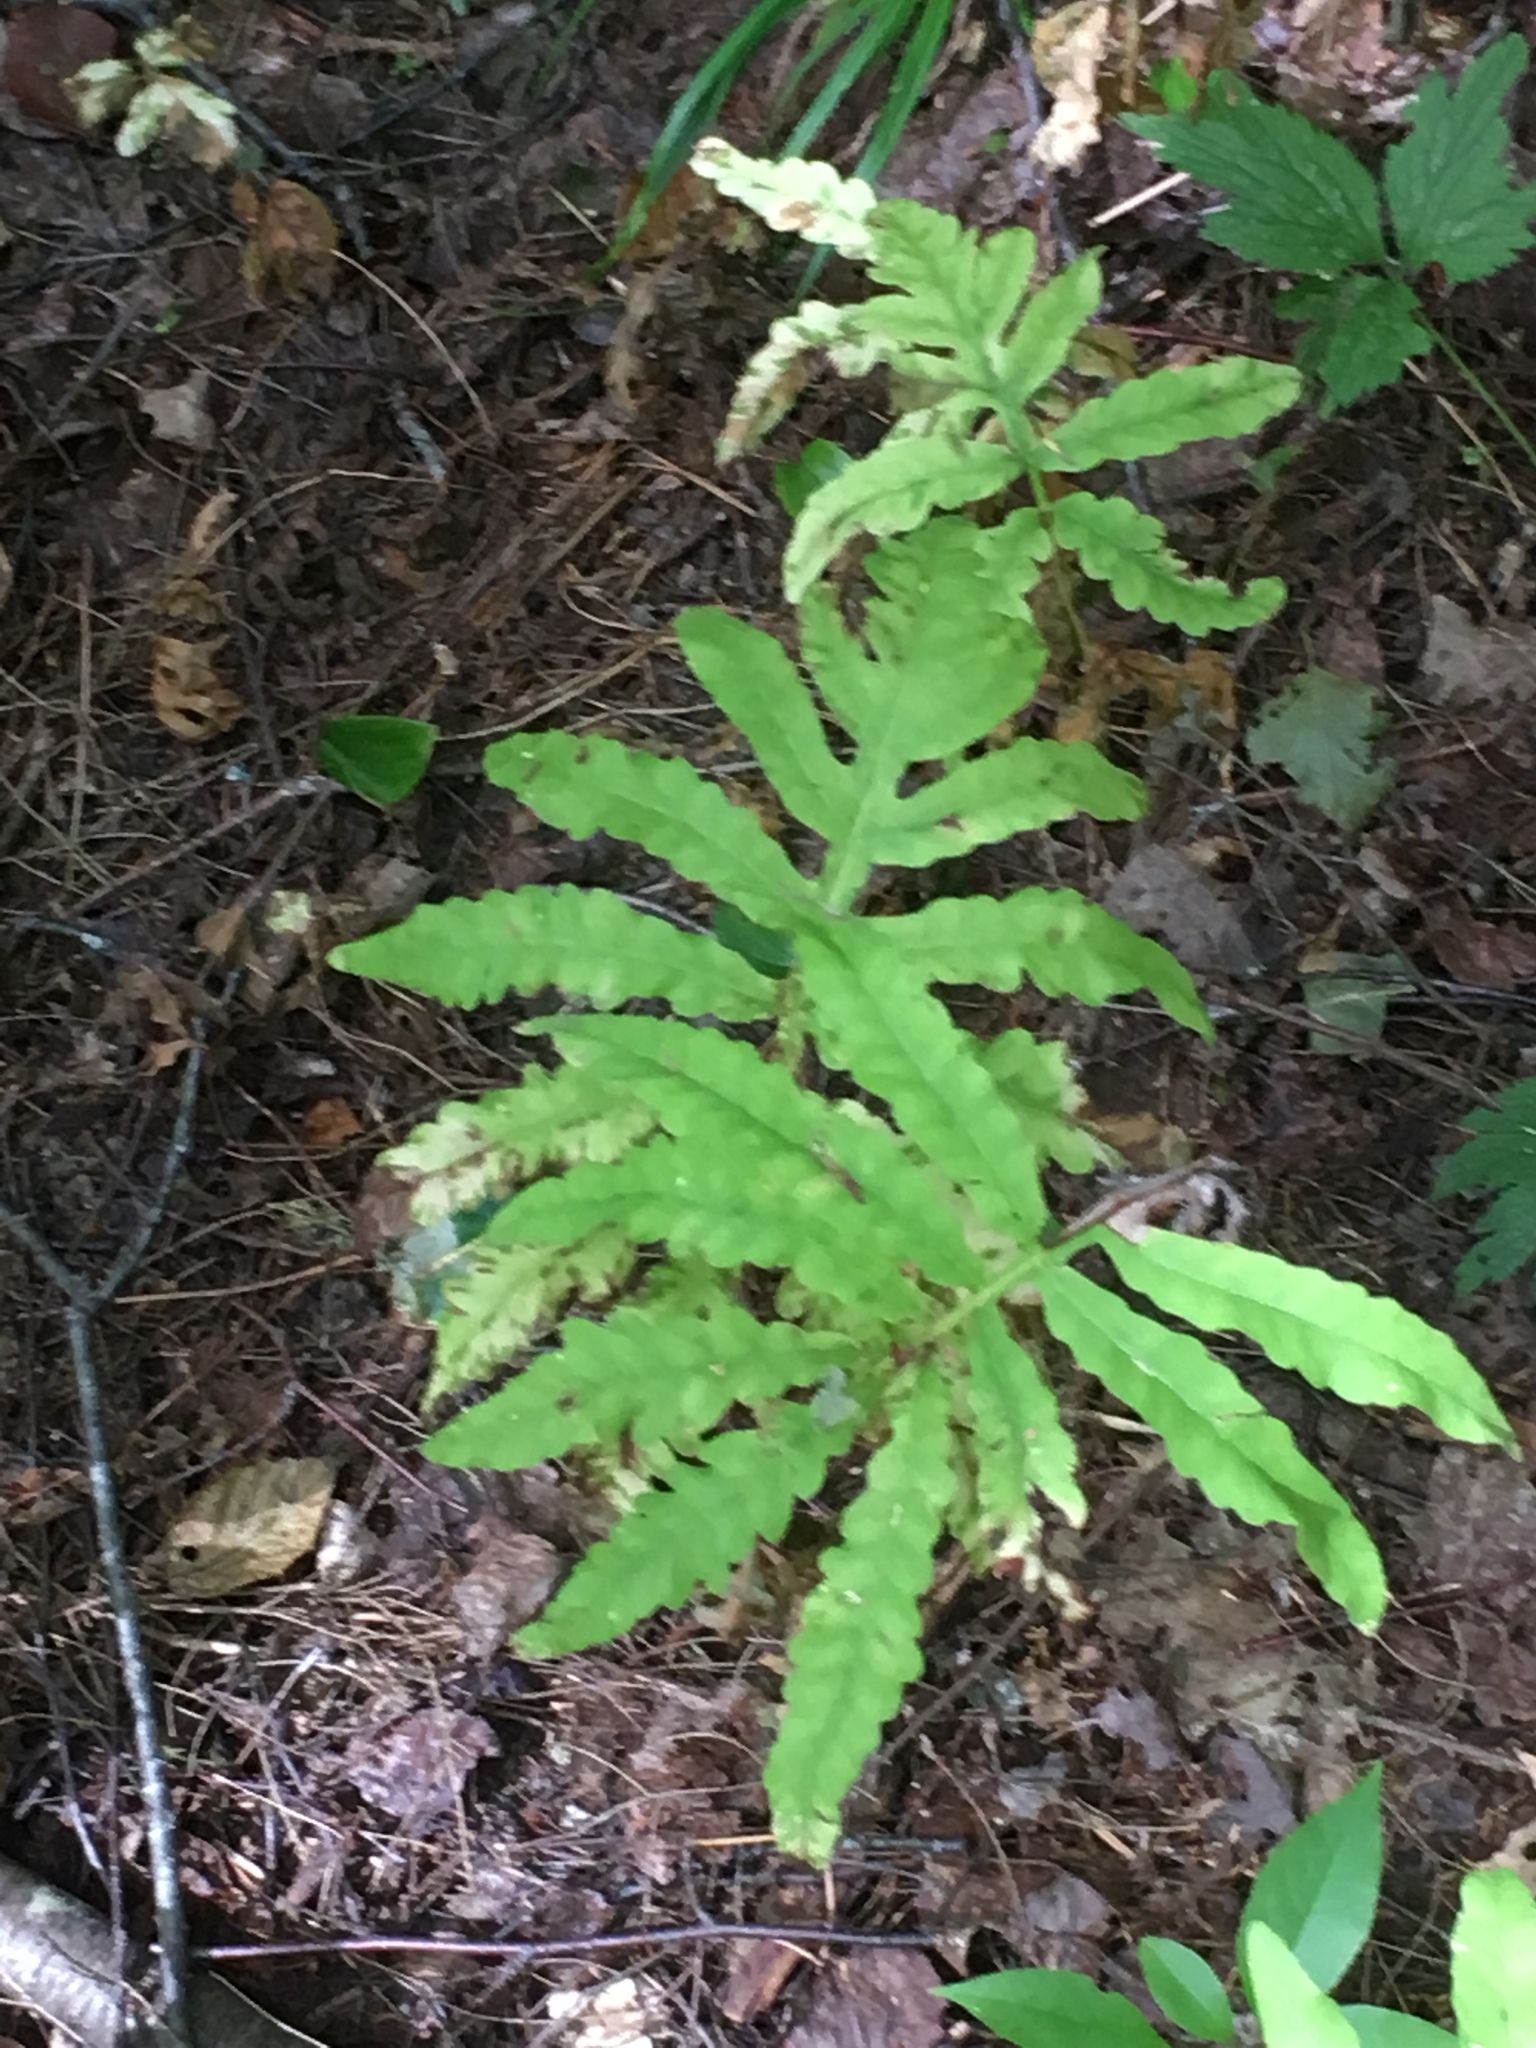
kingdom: Plantae
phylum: Tracheophyta
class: Polypodiopsida
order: Polypodiales
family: Onocleaceae
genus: Onoclea
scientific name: Onoclea sensibilis
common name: Sensitive fern
